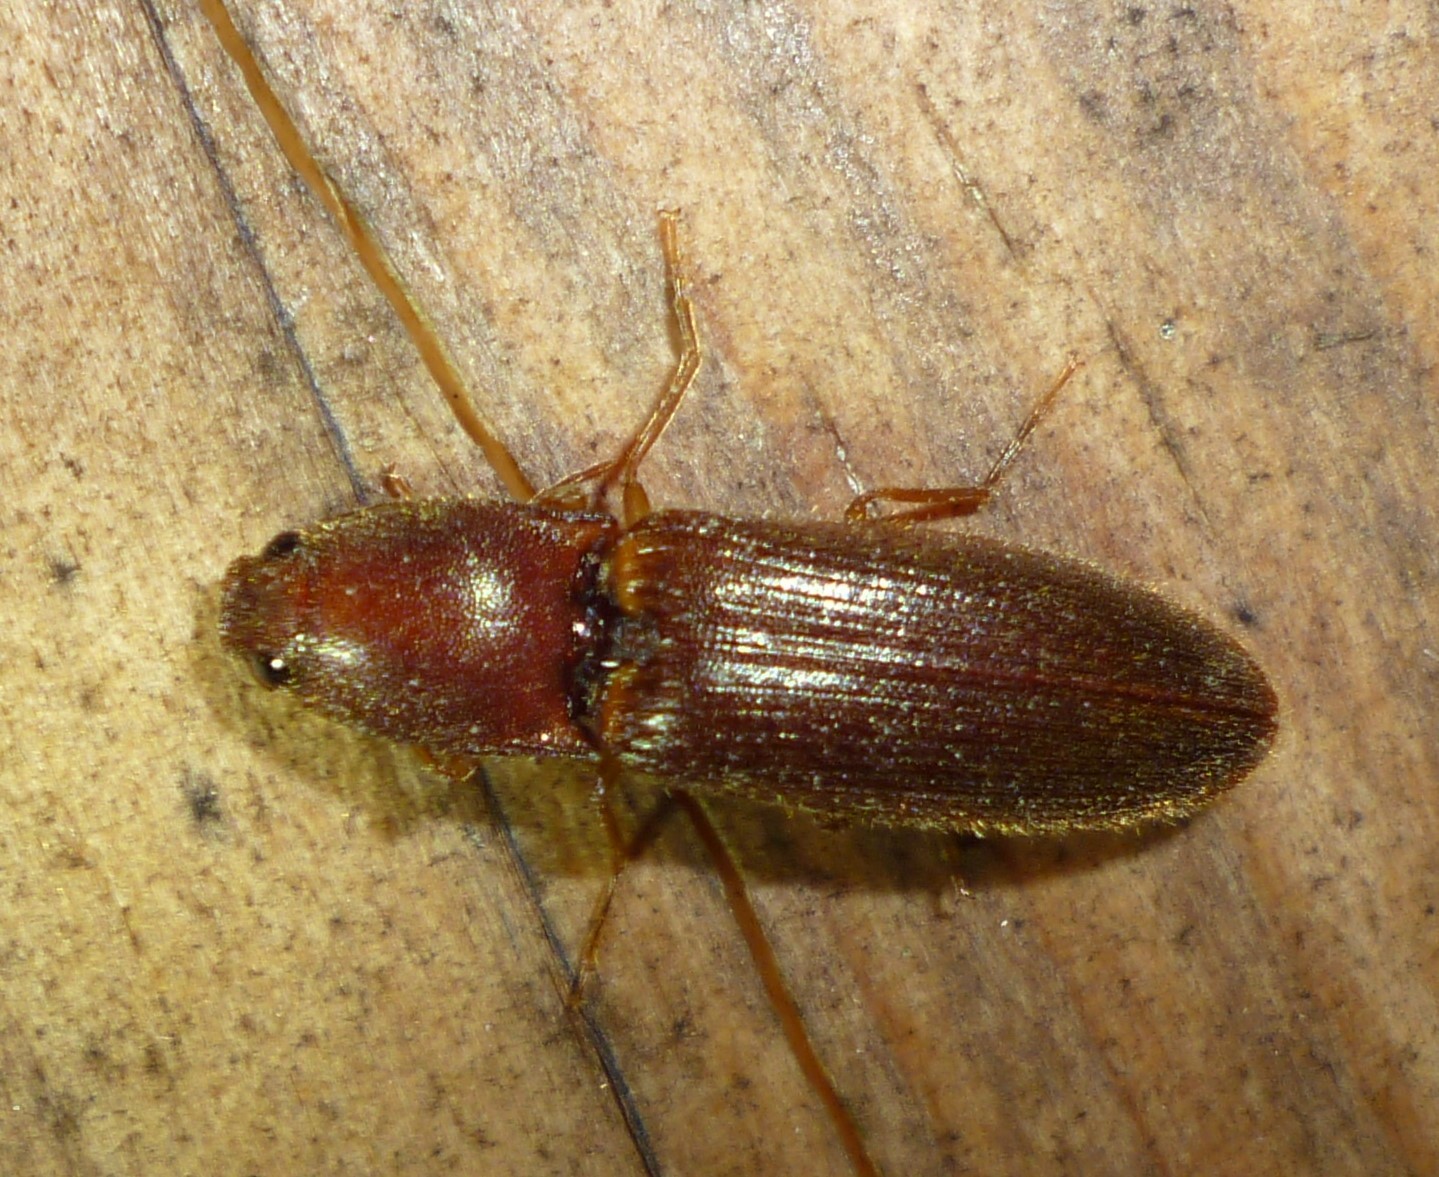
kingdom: Animalia
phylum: Arthropoda
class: Insecta
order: Coleoptera
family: Elateridae
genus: Athous
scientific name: Athous cucullatus
